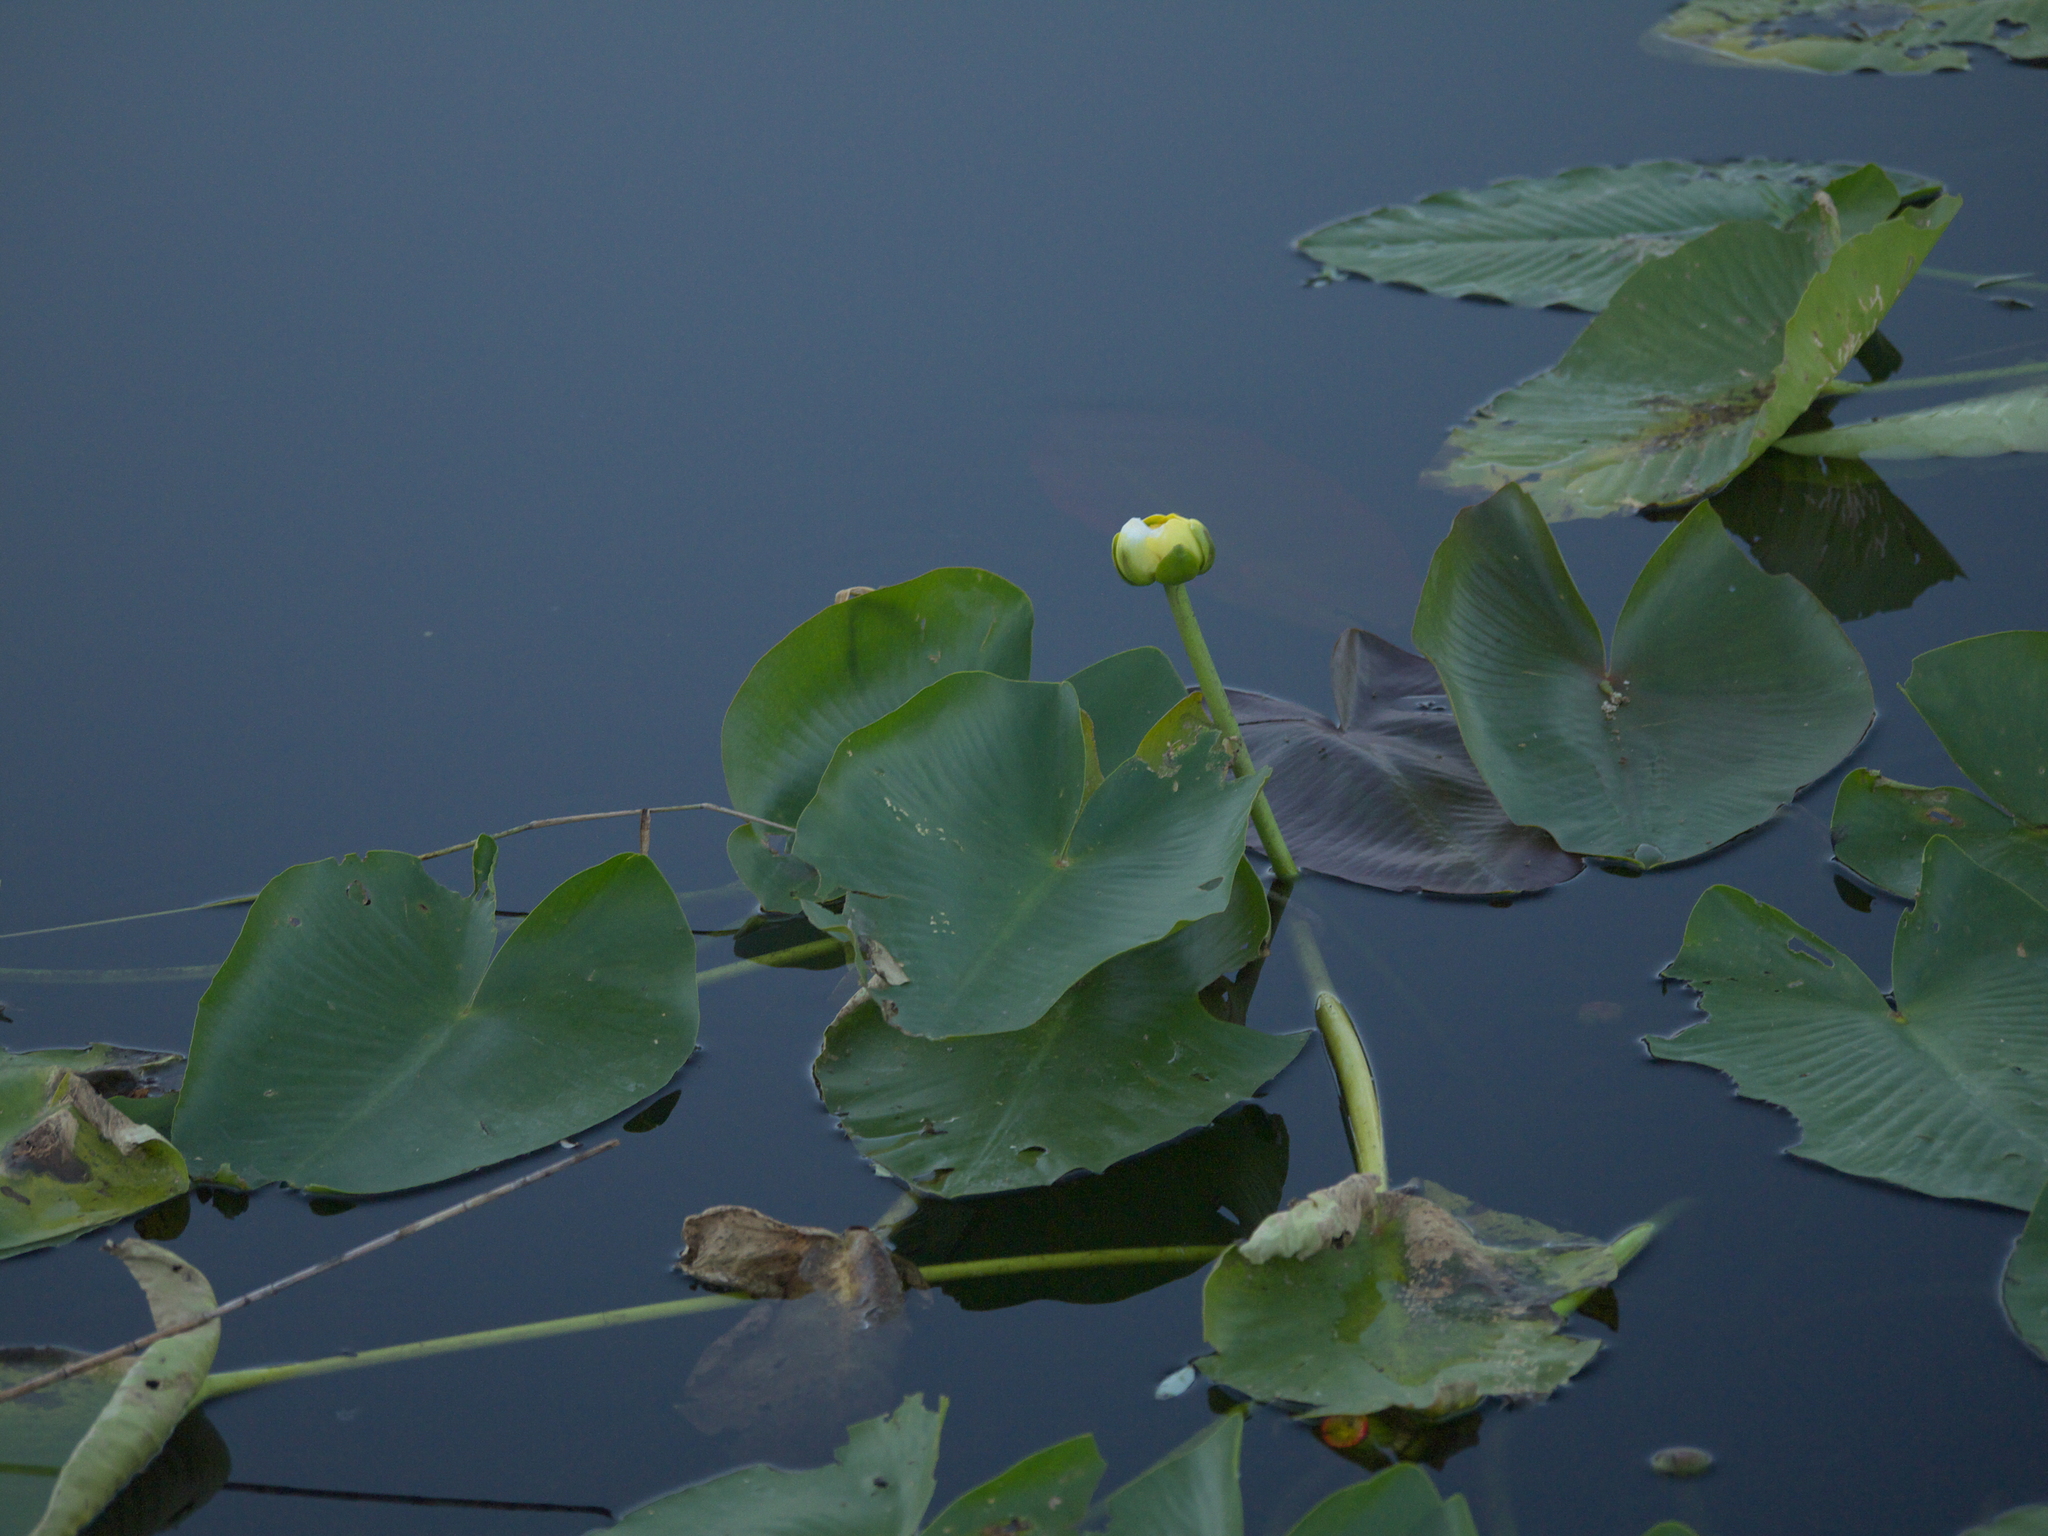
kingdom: Plantae
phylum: Tracheophyta
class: Magnoliopsida
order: Nymphaeales
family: Nymphaeaceae
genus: Nuphar
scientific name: Nuphar advena
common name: Spatter-dock
